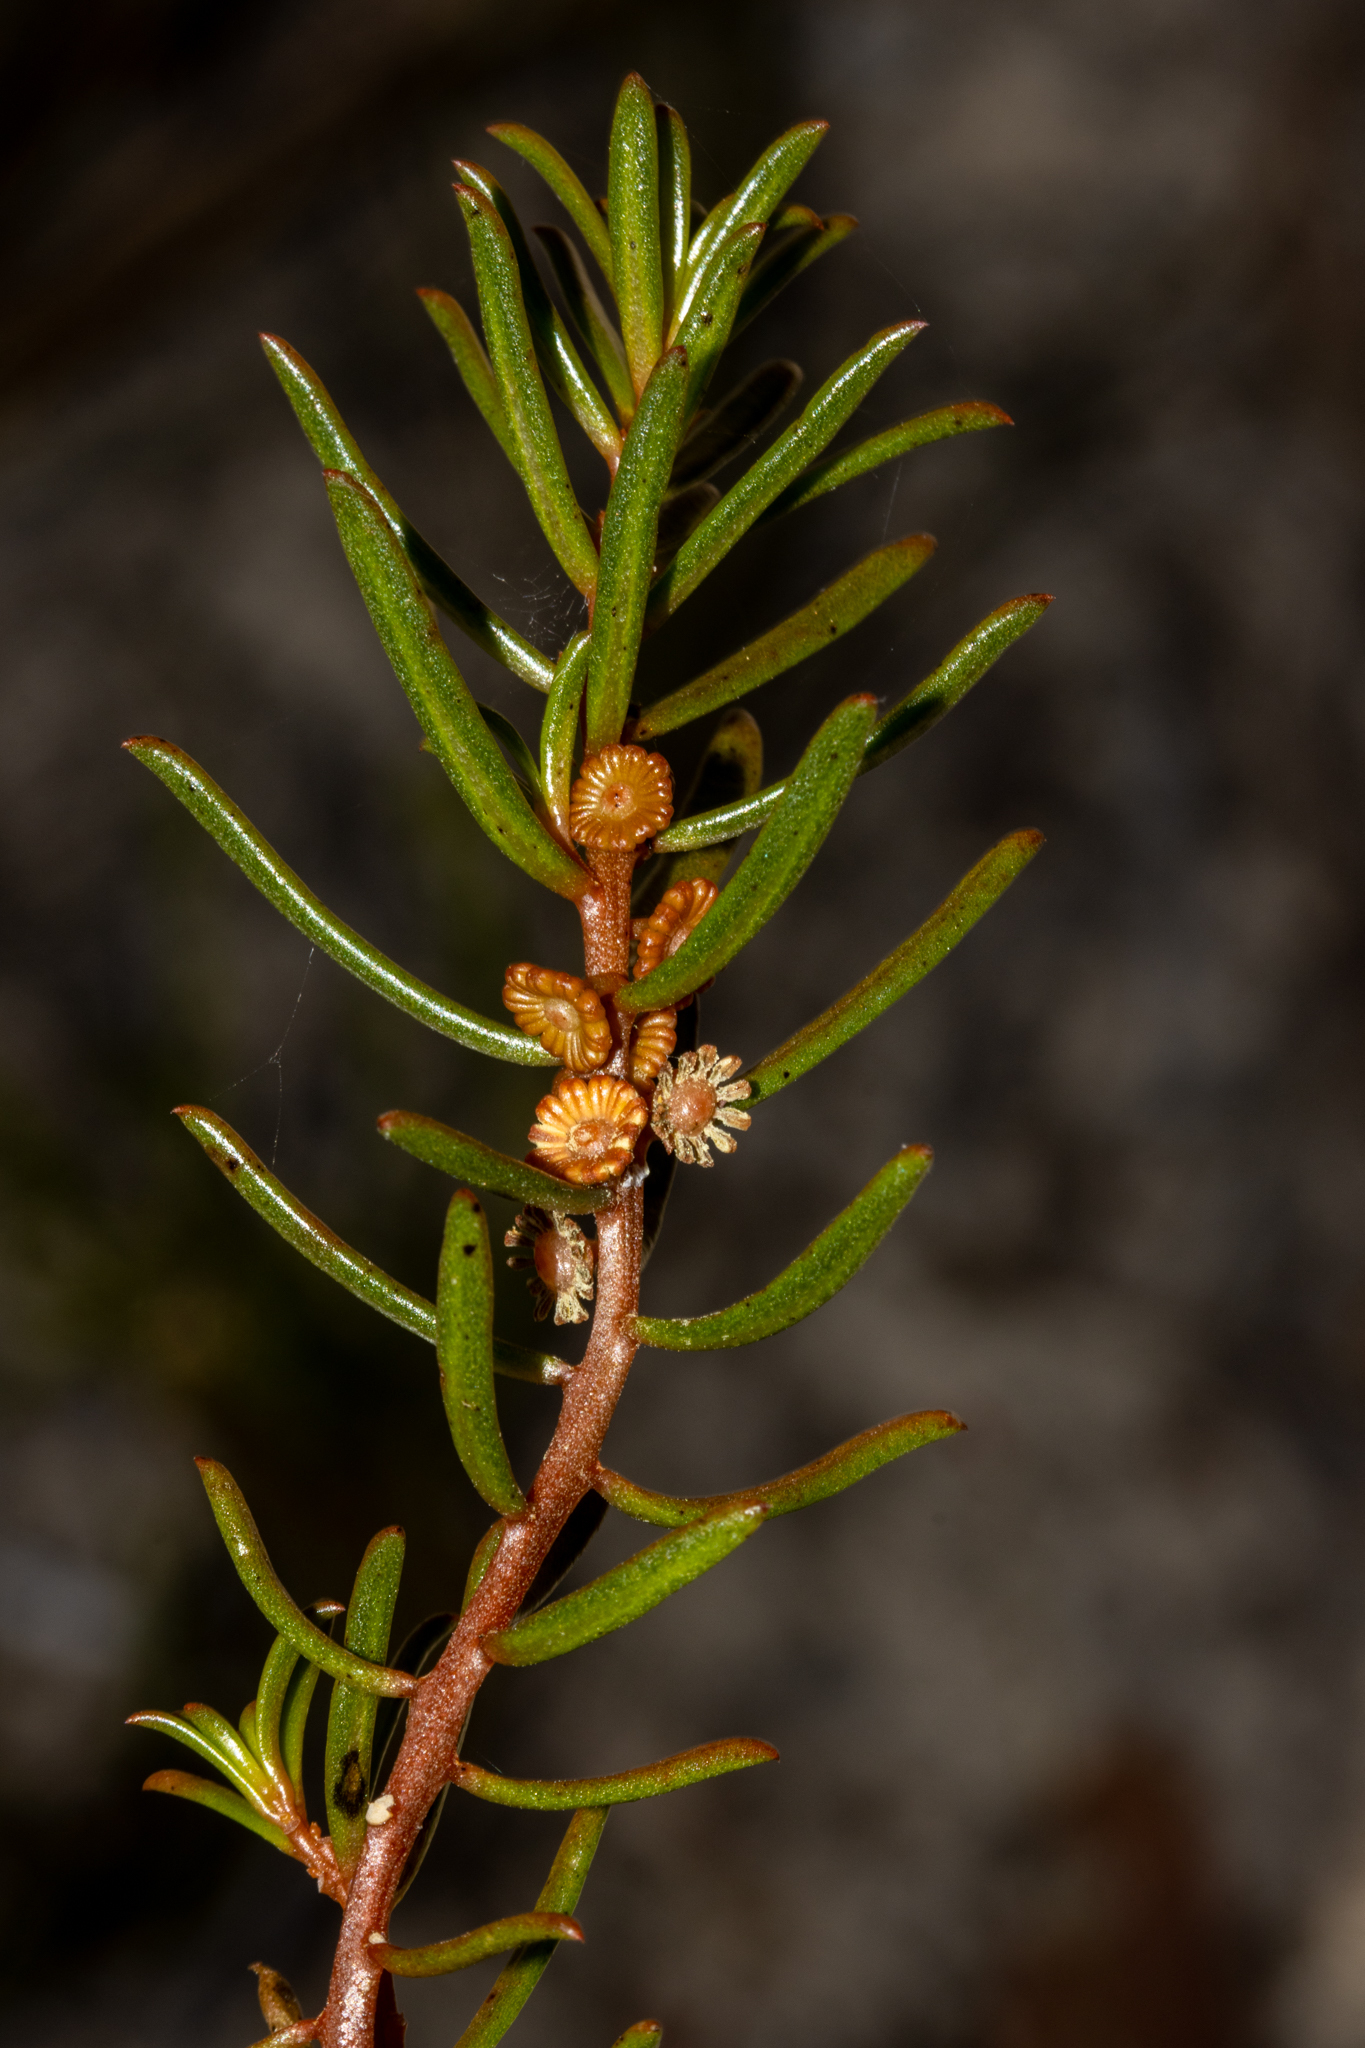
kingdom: Plantae
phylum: Tracheophyta
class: Magnoliopsida
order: Brassicales
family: Gyrostemonaceae
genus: Gyrostemon
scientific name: Gyrostemon australasicus
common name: Wheelfruit
